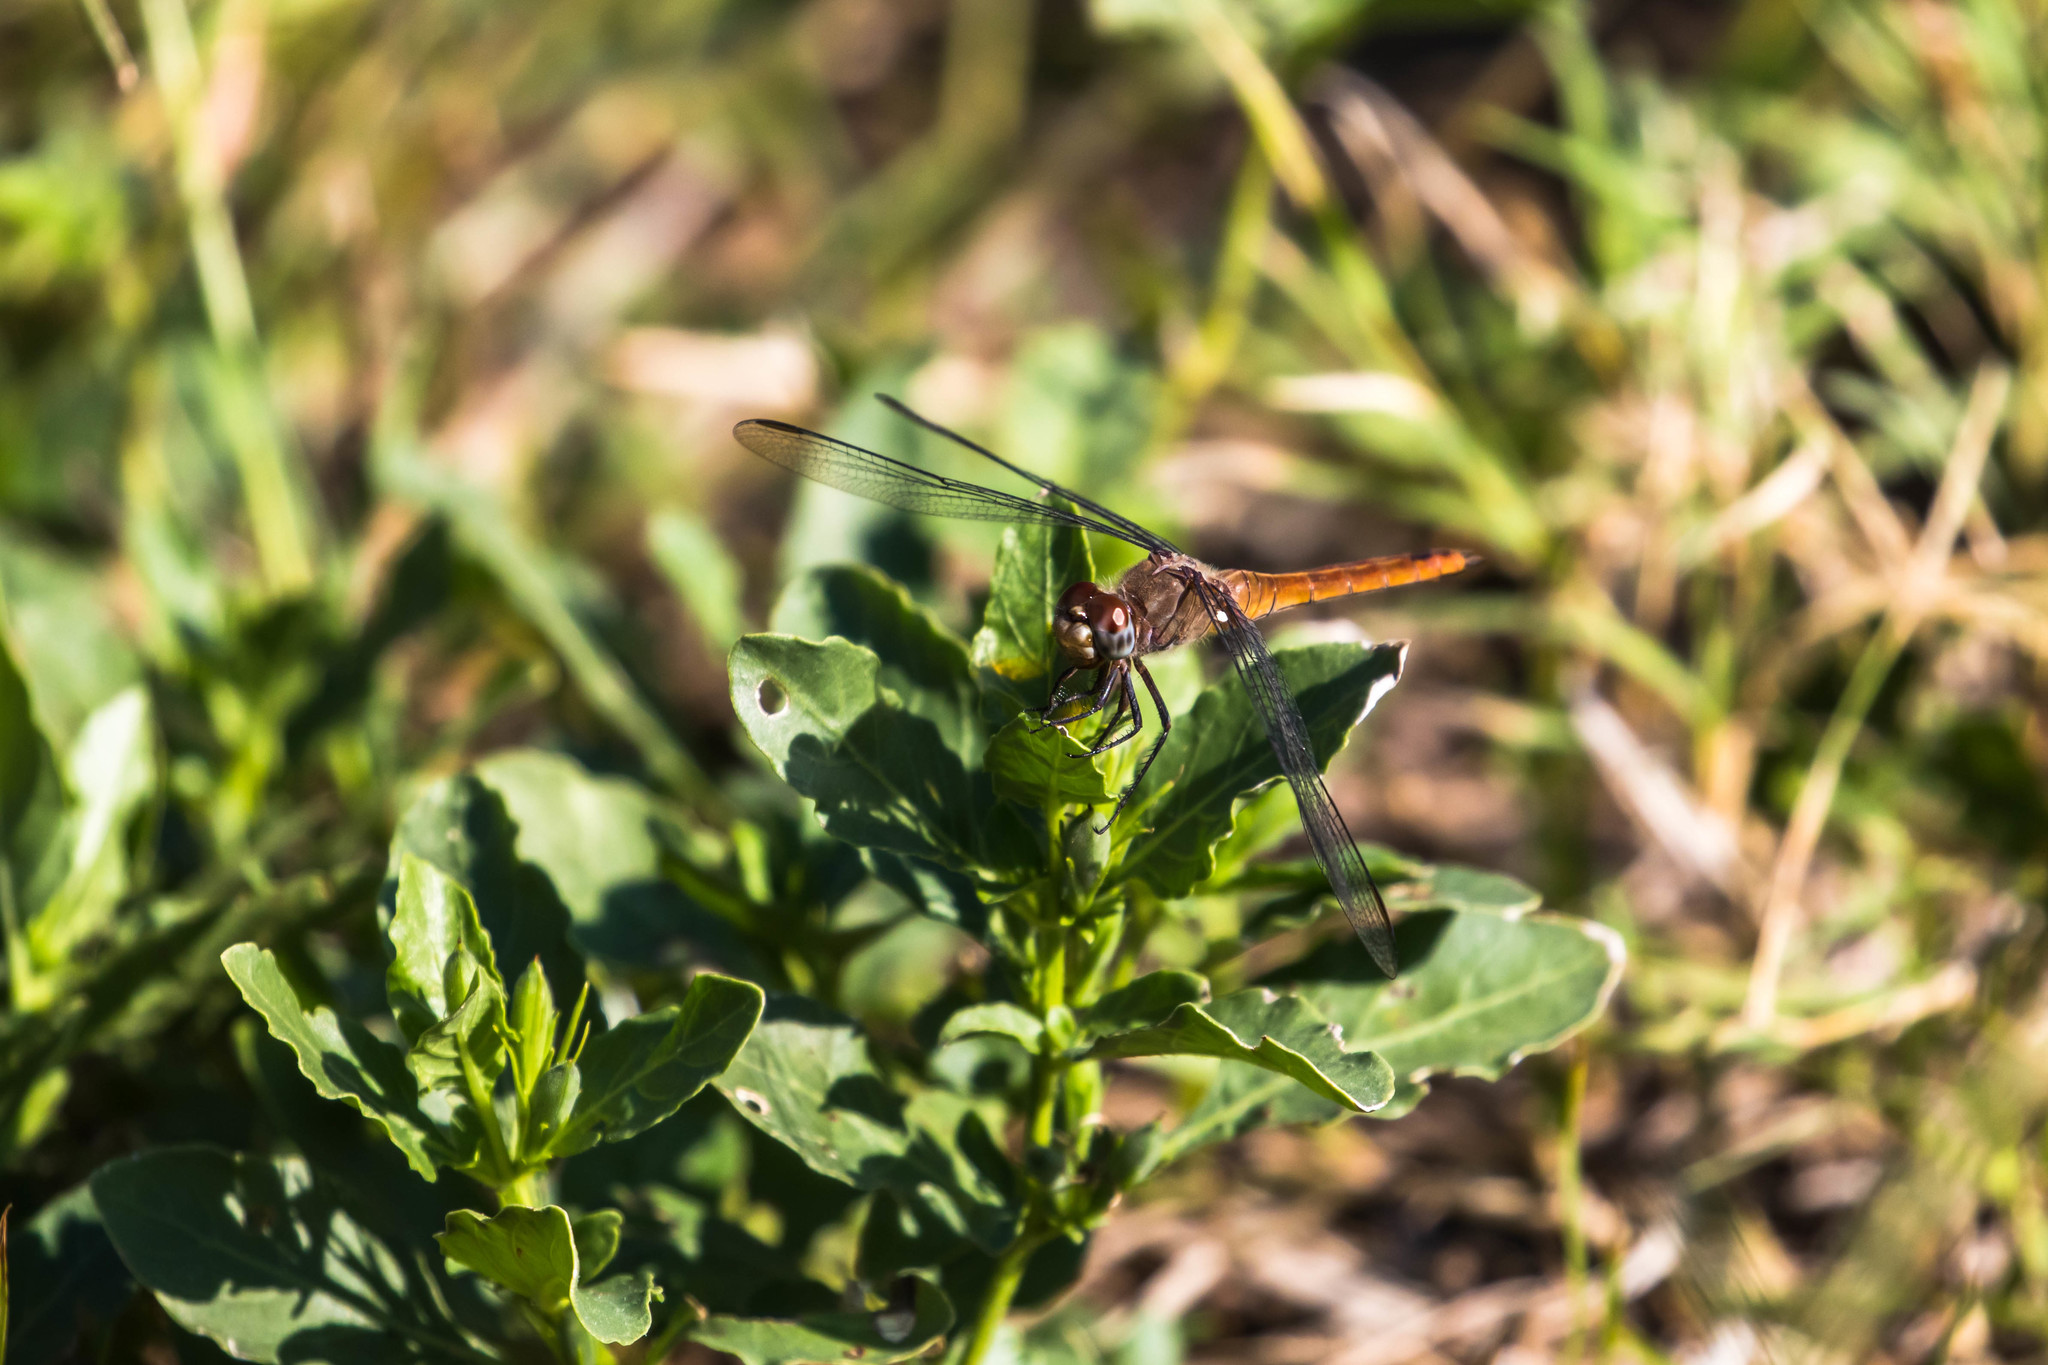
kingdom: Animalia
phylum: Arthropoda
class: Insecta
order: Odonata
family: Libellulidae
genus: Brachymesia
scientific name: Brachymesia furcata
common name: Red-taled pennant
